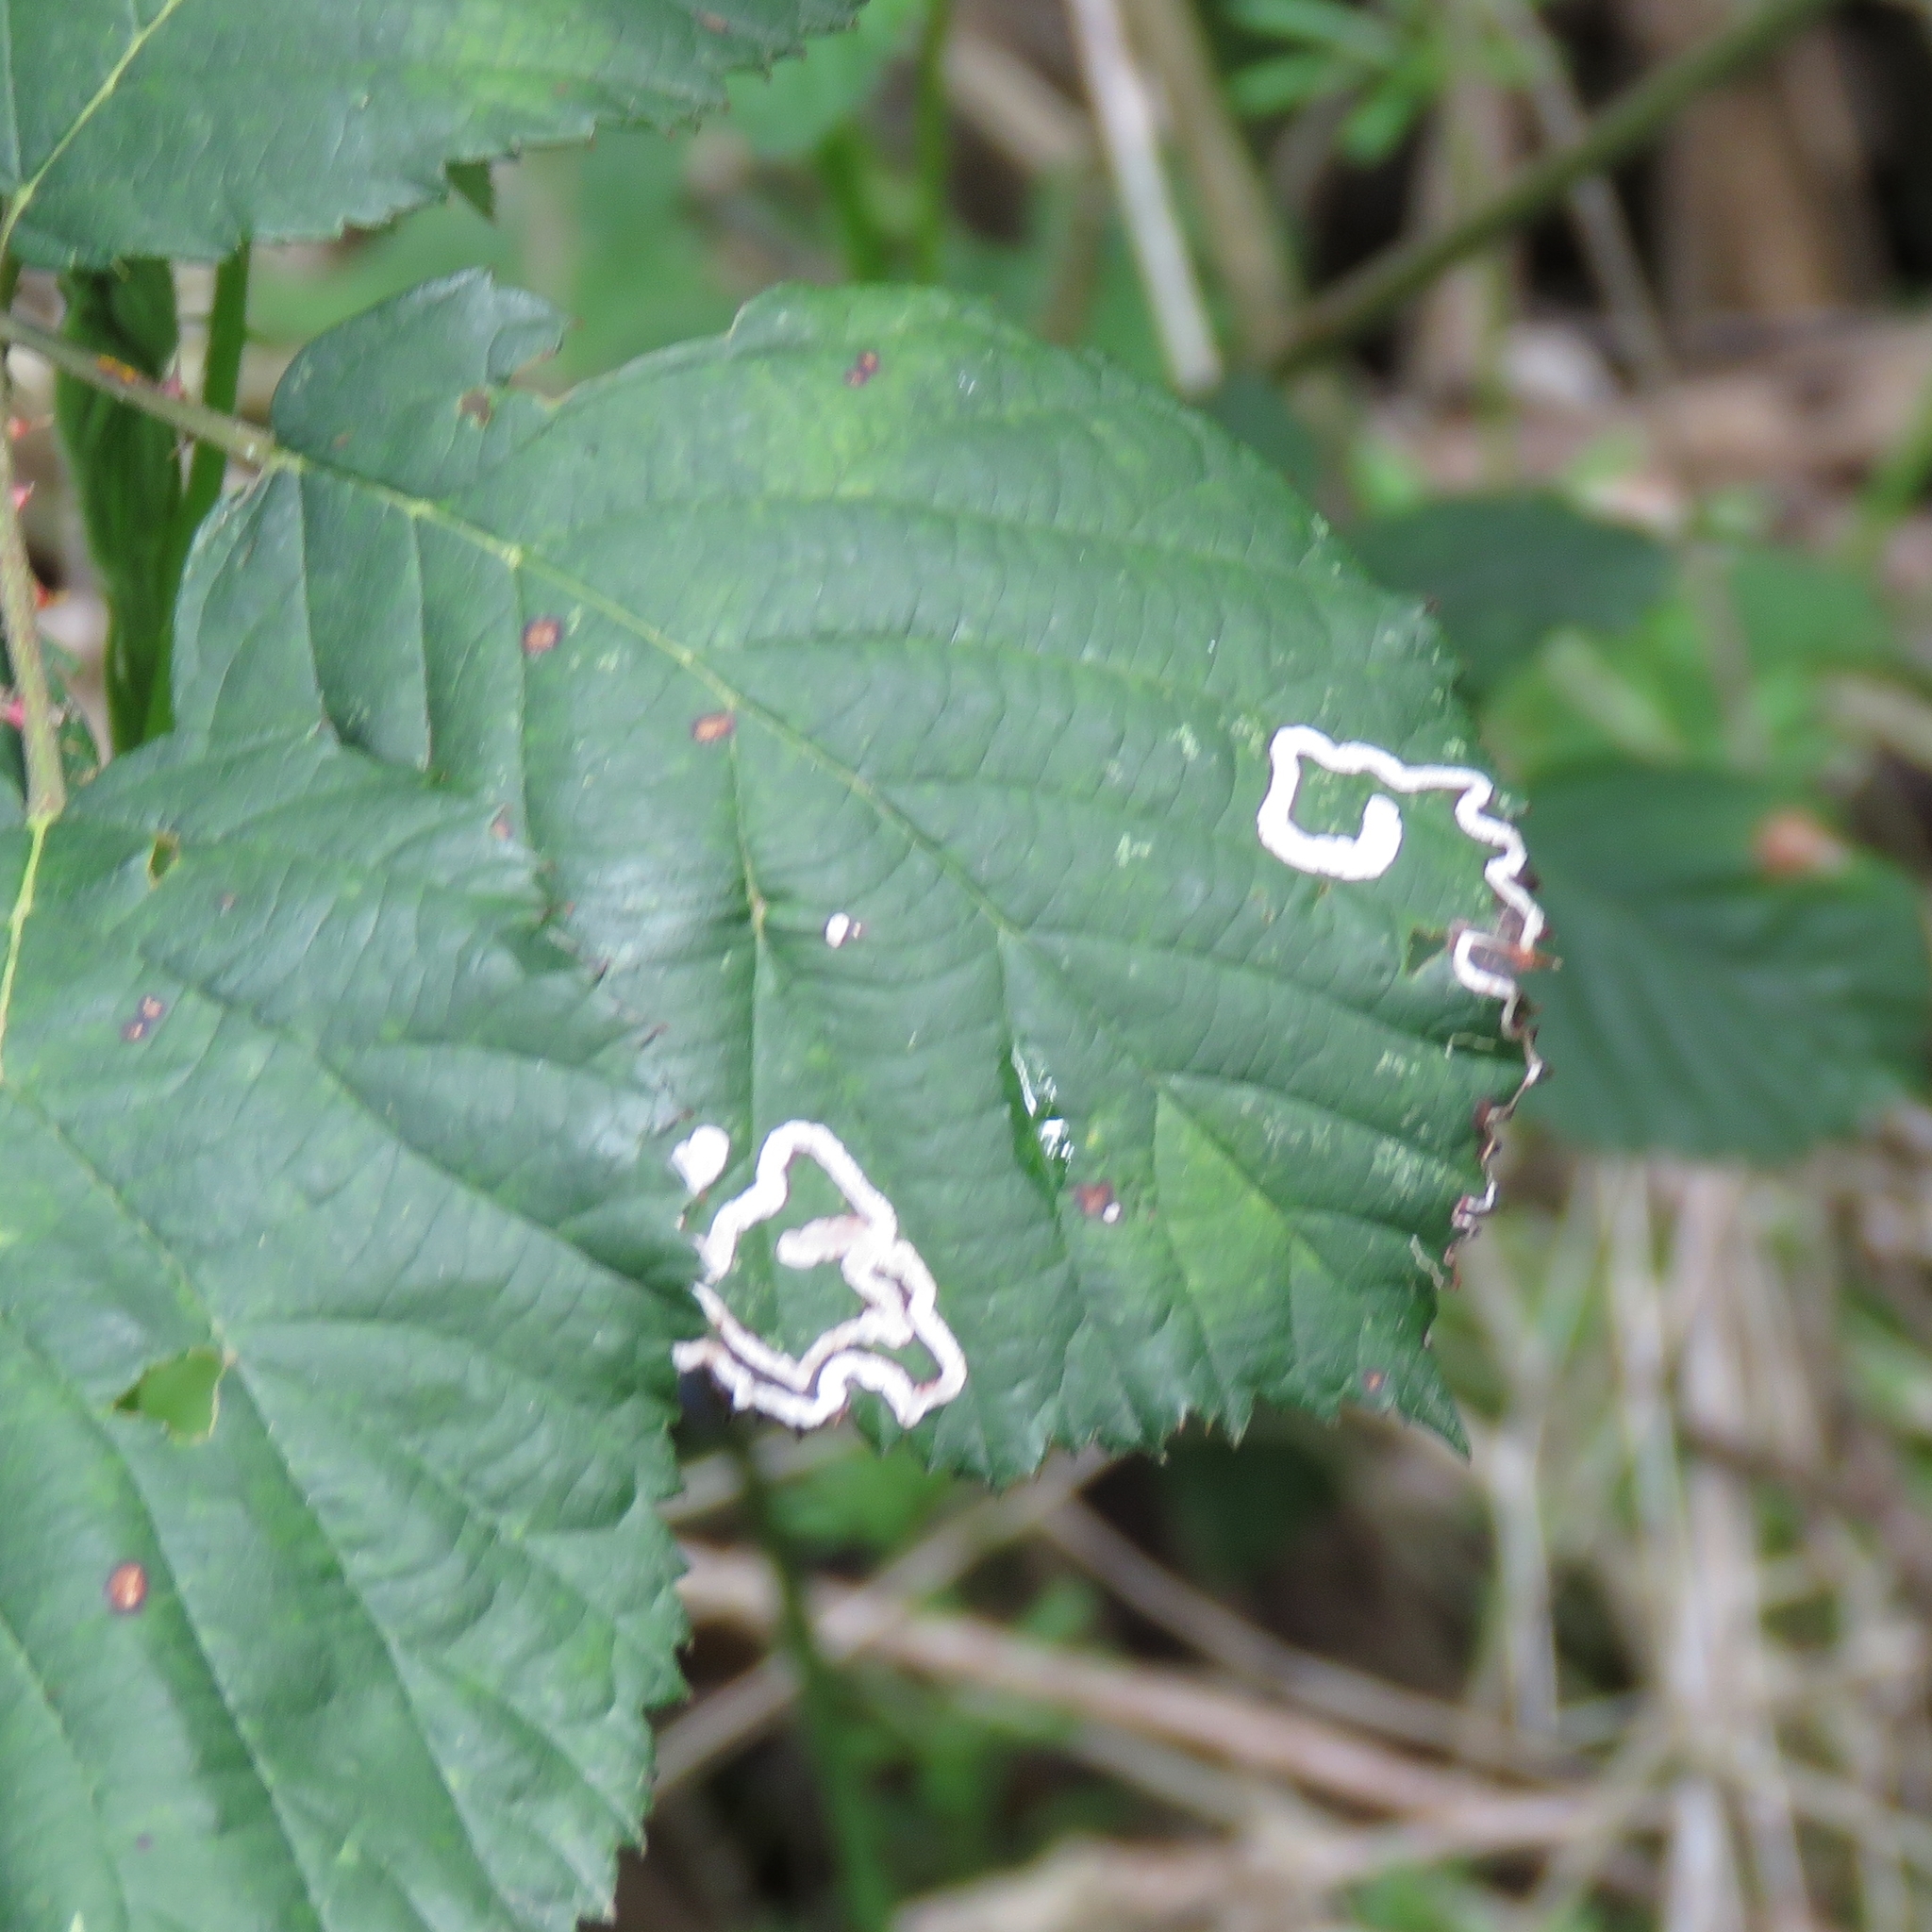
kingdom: Animalia
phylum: Arthropoda
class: Insecta
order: Lepidoptera
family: Nepticulidae
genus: Stigmella
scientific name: Stigmella aurella
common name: Golden pigmy
